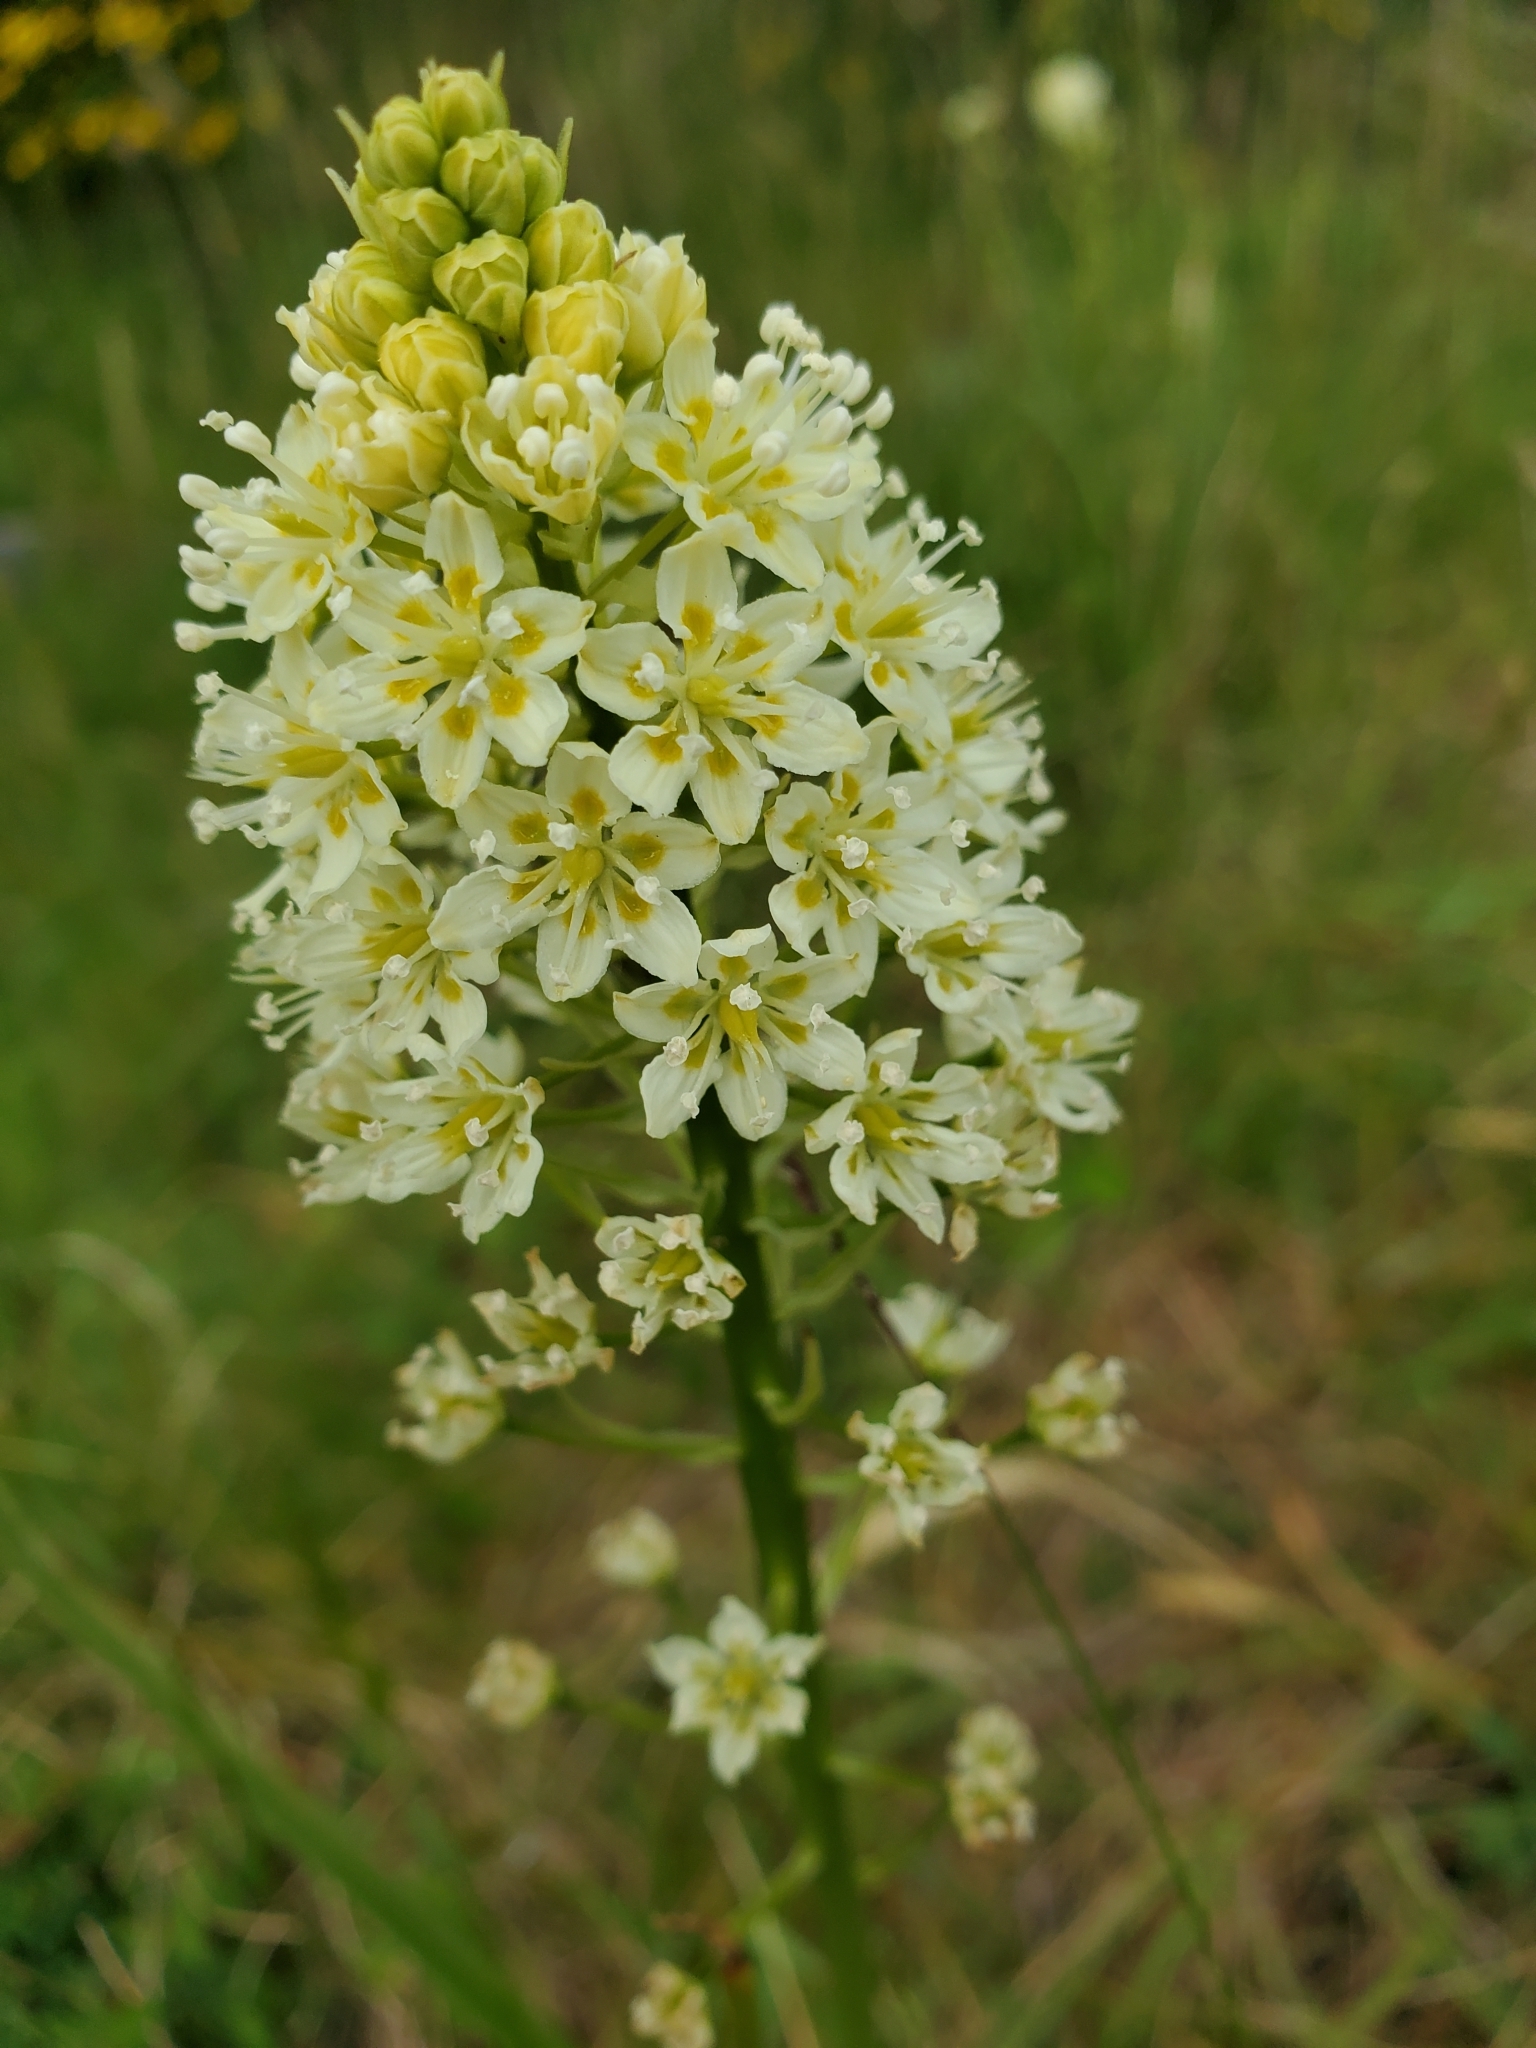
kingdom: Plantae
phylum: Tracheophyta
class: Liliopsida
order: Liliales
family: Melanthiaceae
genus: Toxicoscordion
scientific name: Toxicoscordion venenosum
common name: Meadow death camas
